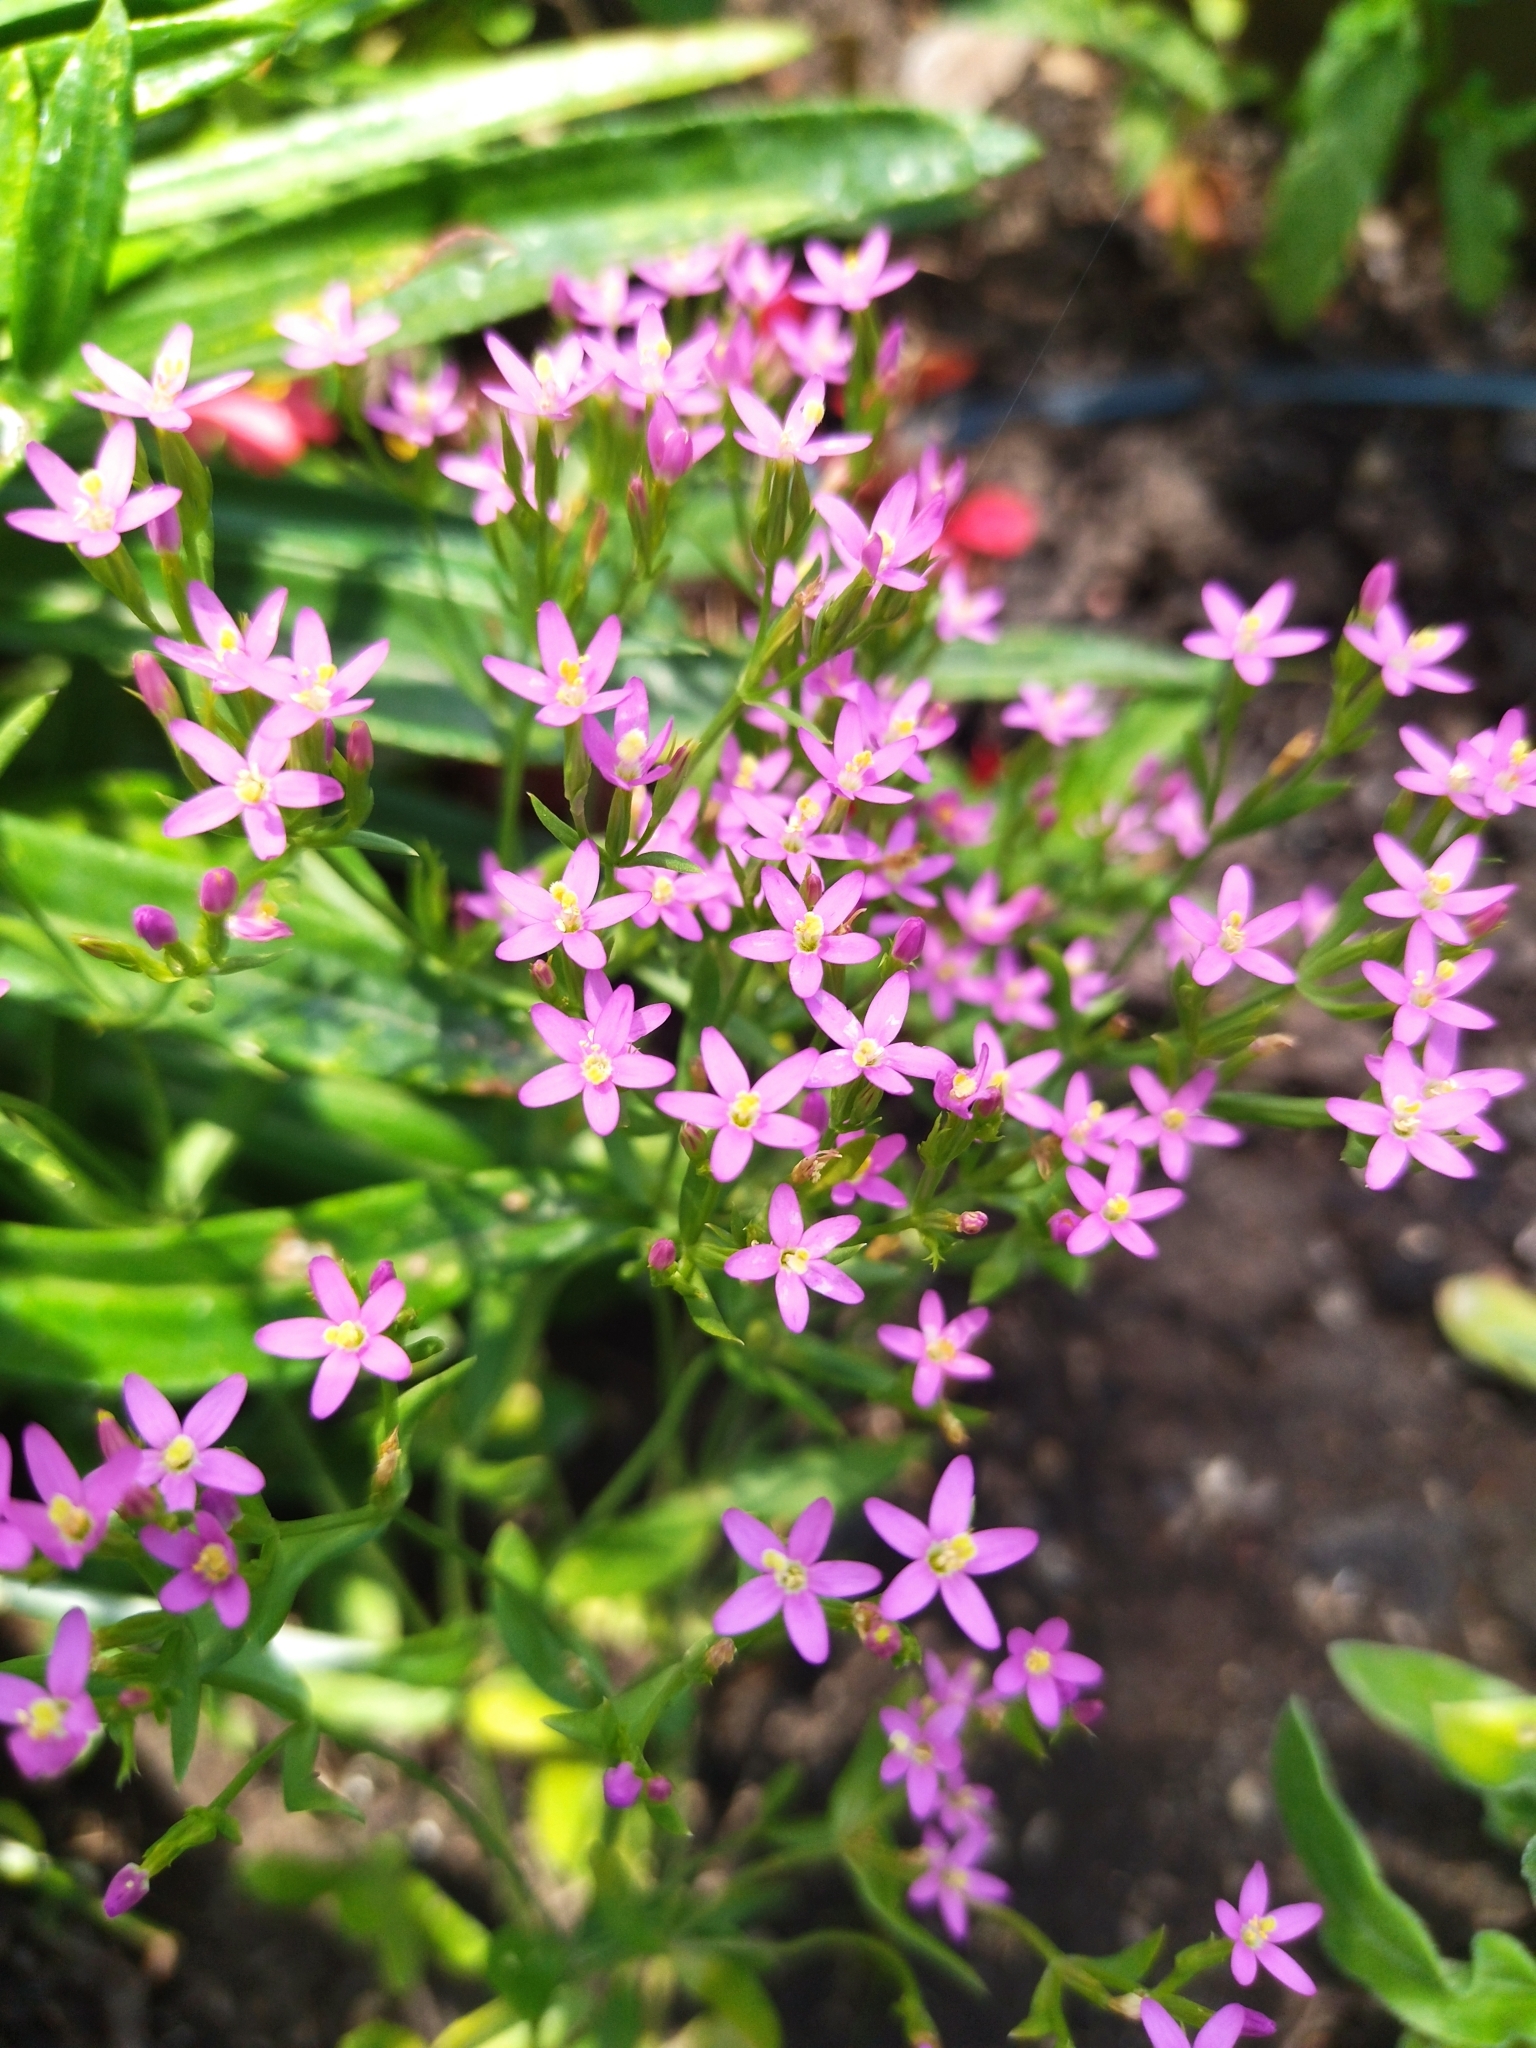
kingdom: Plantae
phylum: Tracheophyta
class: Magnoliopsida
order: Gentianales
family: Gentianaceae
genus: Centaurium
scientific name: Centaurium pulchellum
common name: Lesser centaury
